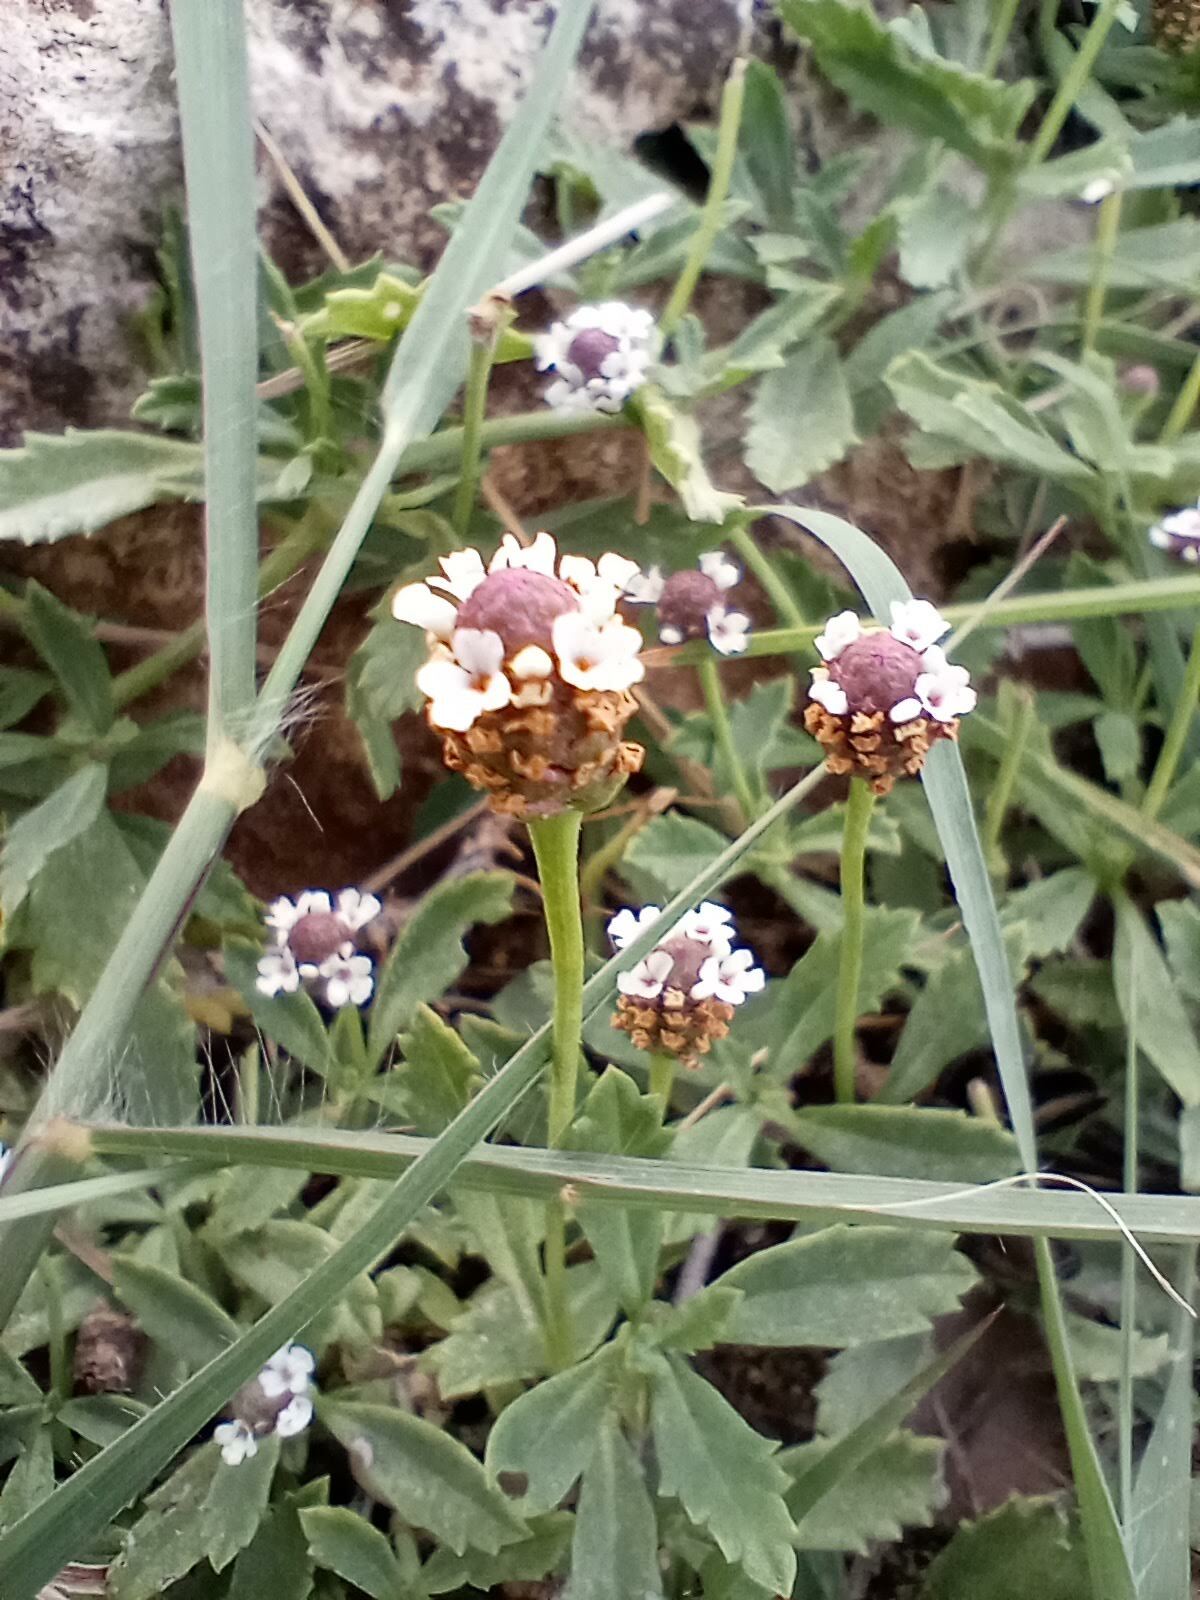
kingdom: Plantae
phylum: Tracheophyta
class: Magnoliopsida
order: Lamiales
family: Verbenaceae
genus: Phyla
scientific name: Phyla nodiflora
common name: Frogfruit
